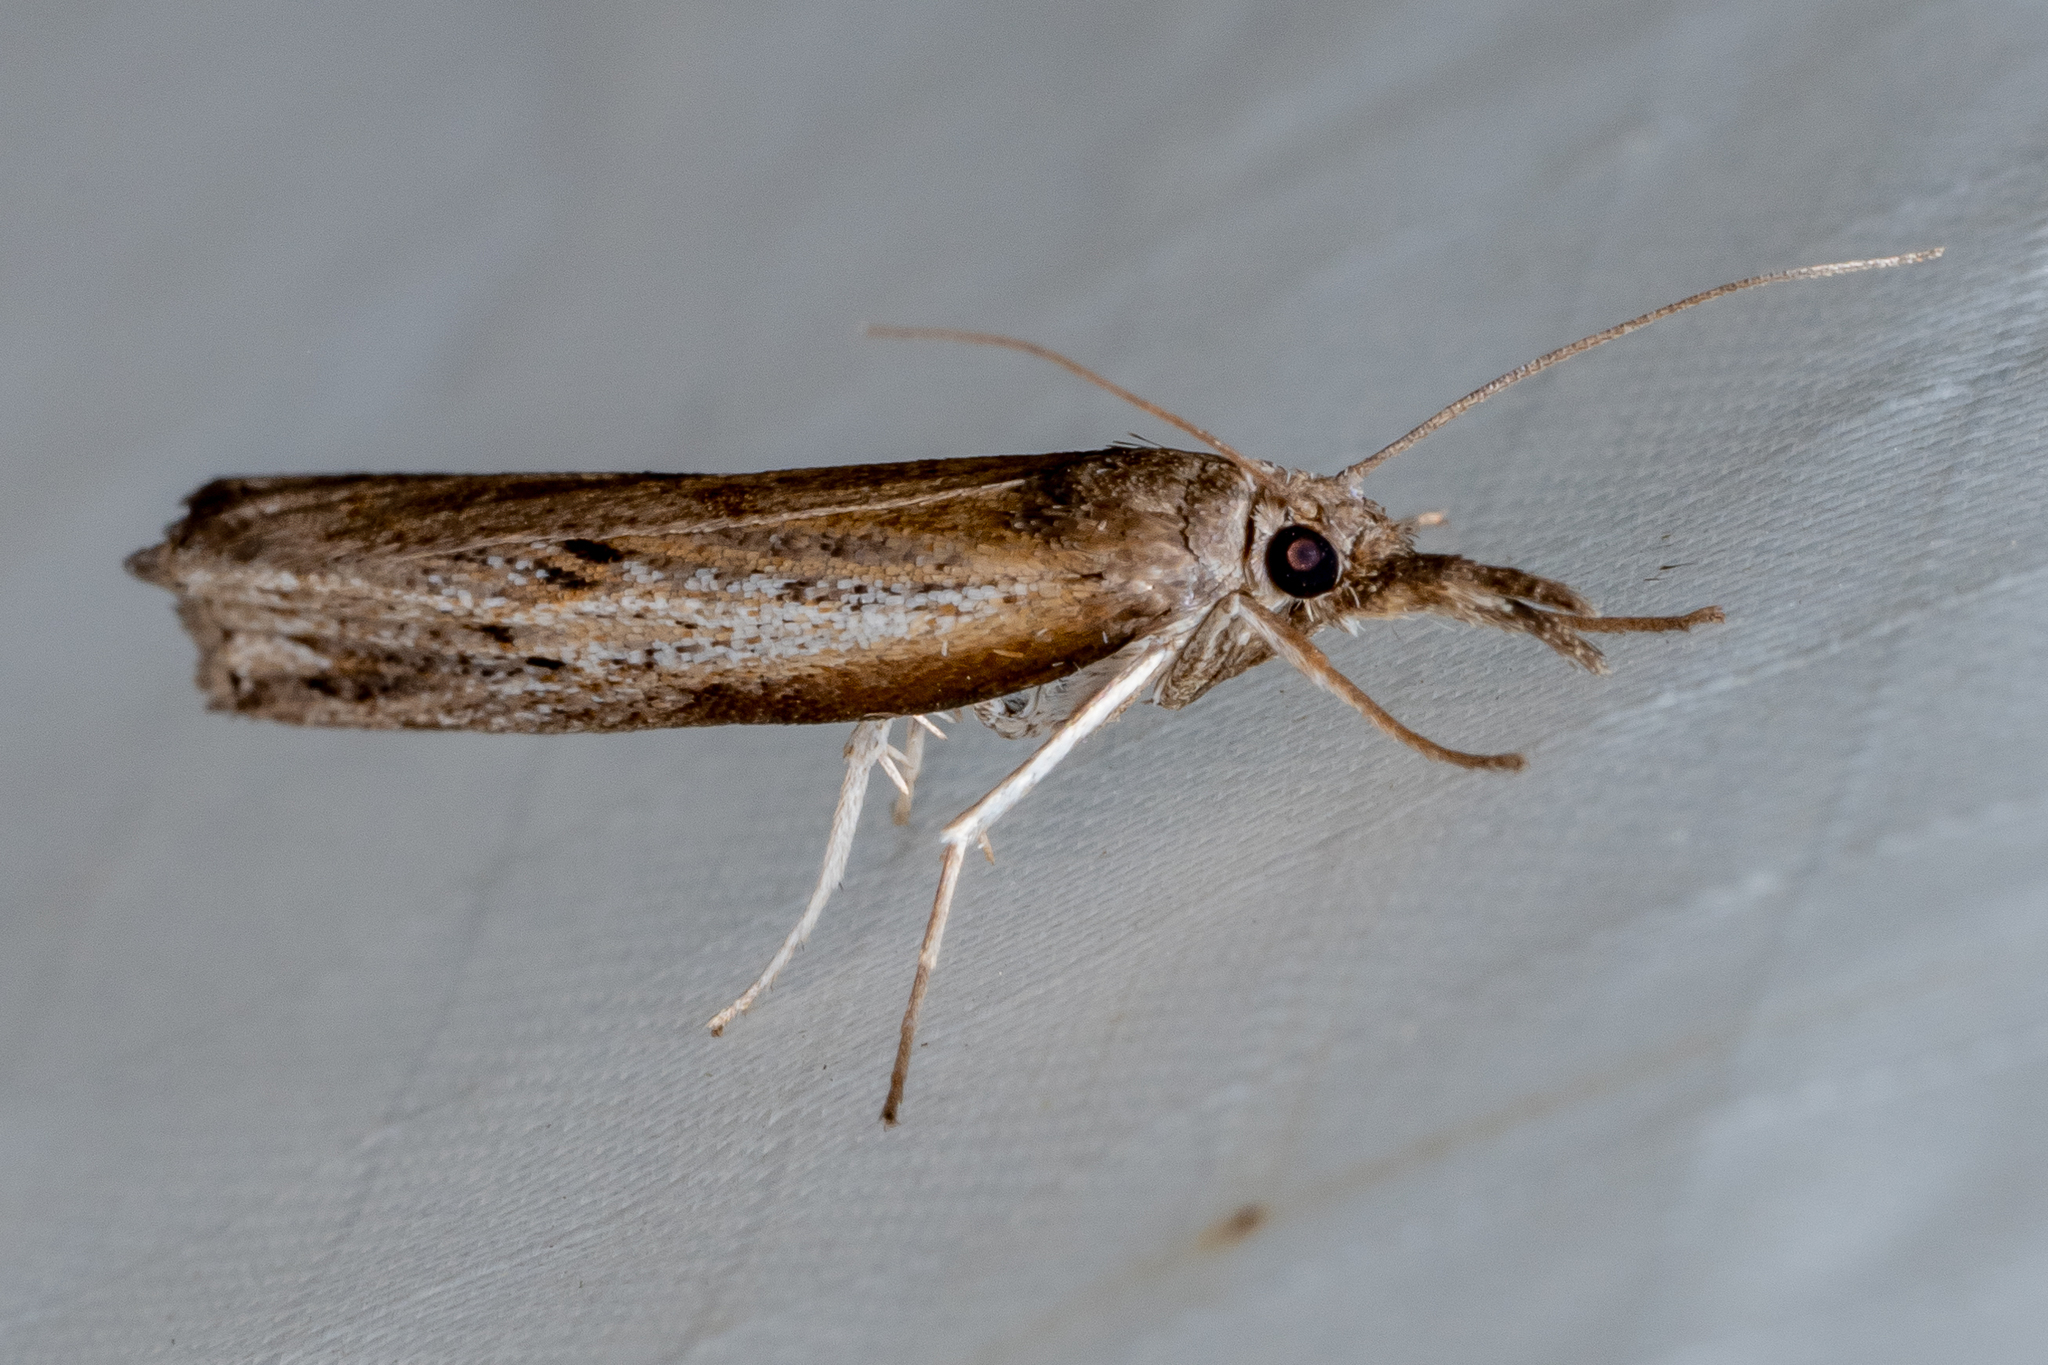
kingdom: Animalia
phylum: Arthropoda
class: Insecta
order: Lepidoptera
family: Crambidae
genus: Fissicrambus
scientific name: Fissicrambus mutabilis
